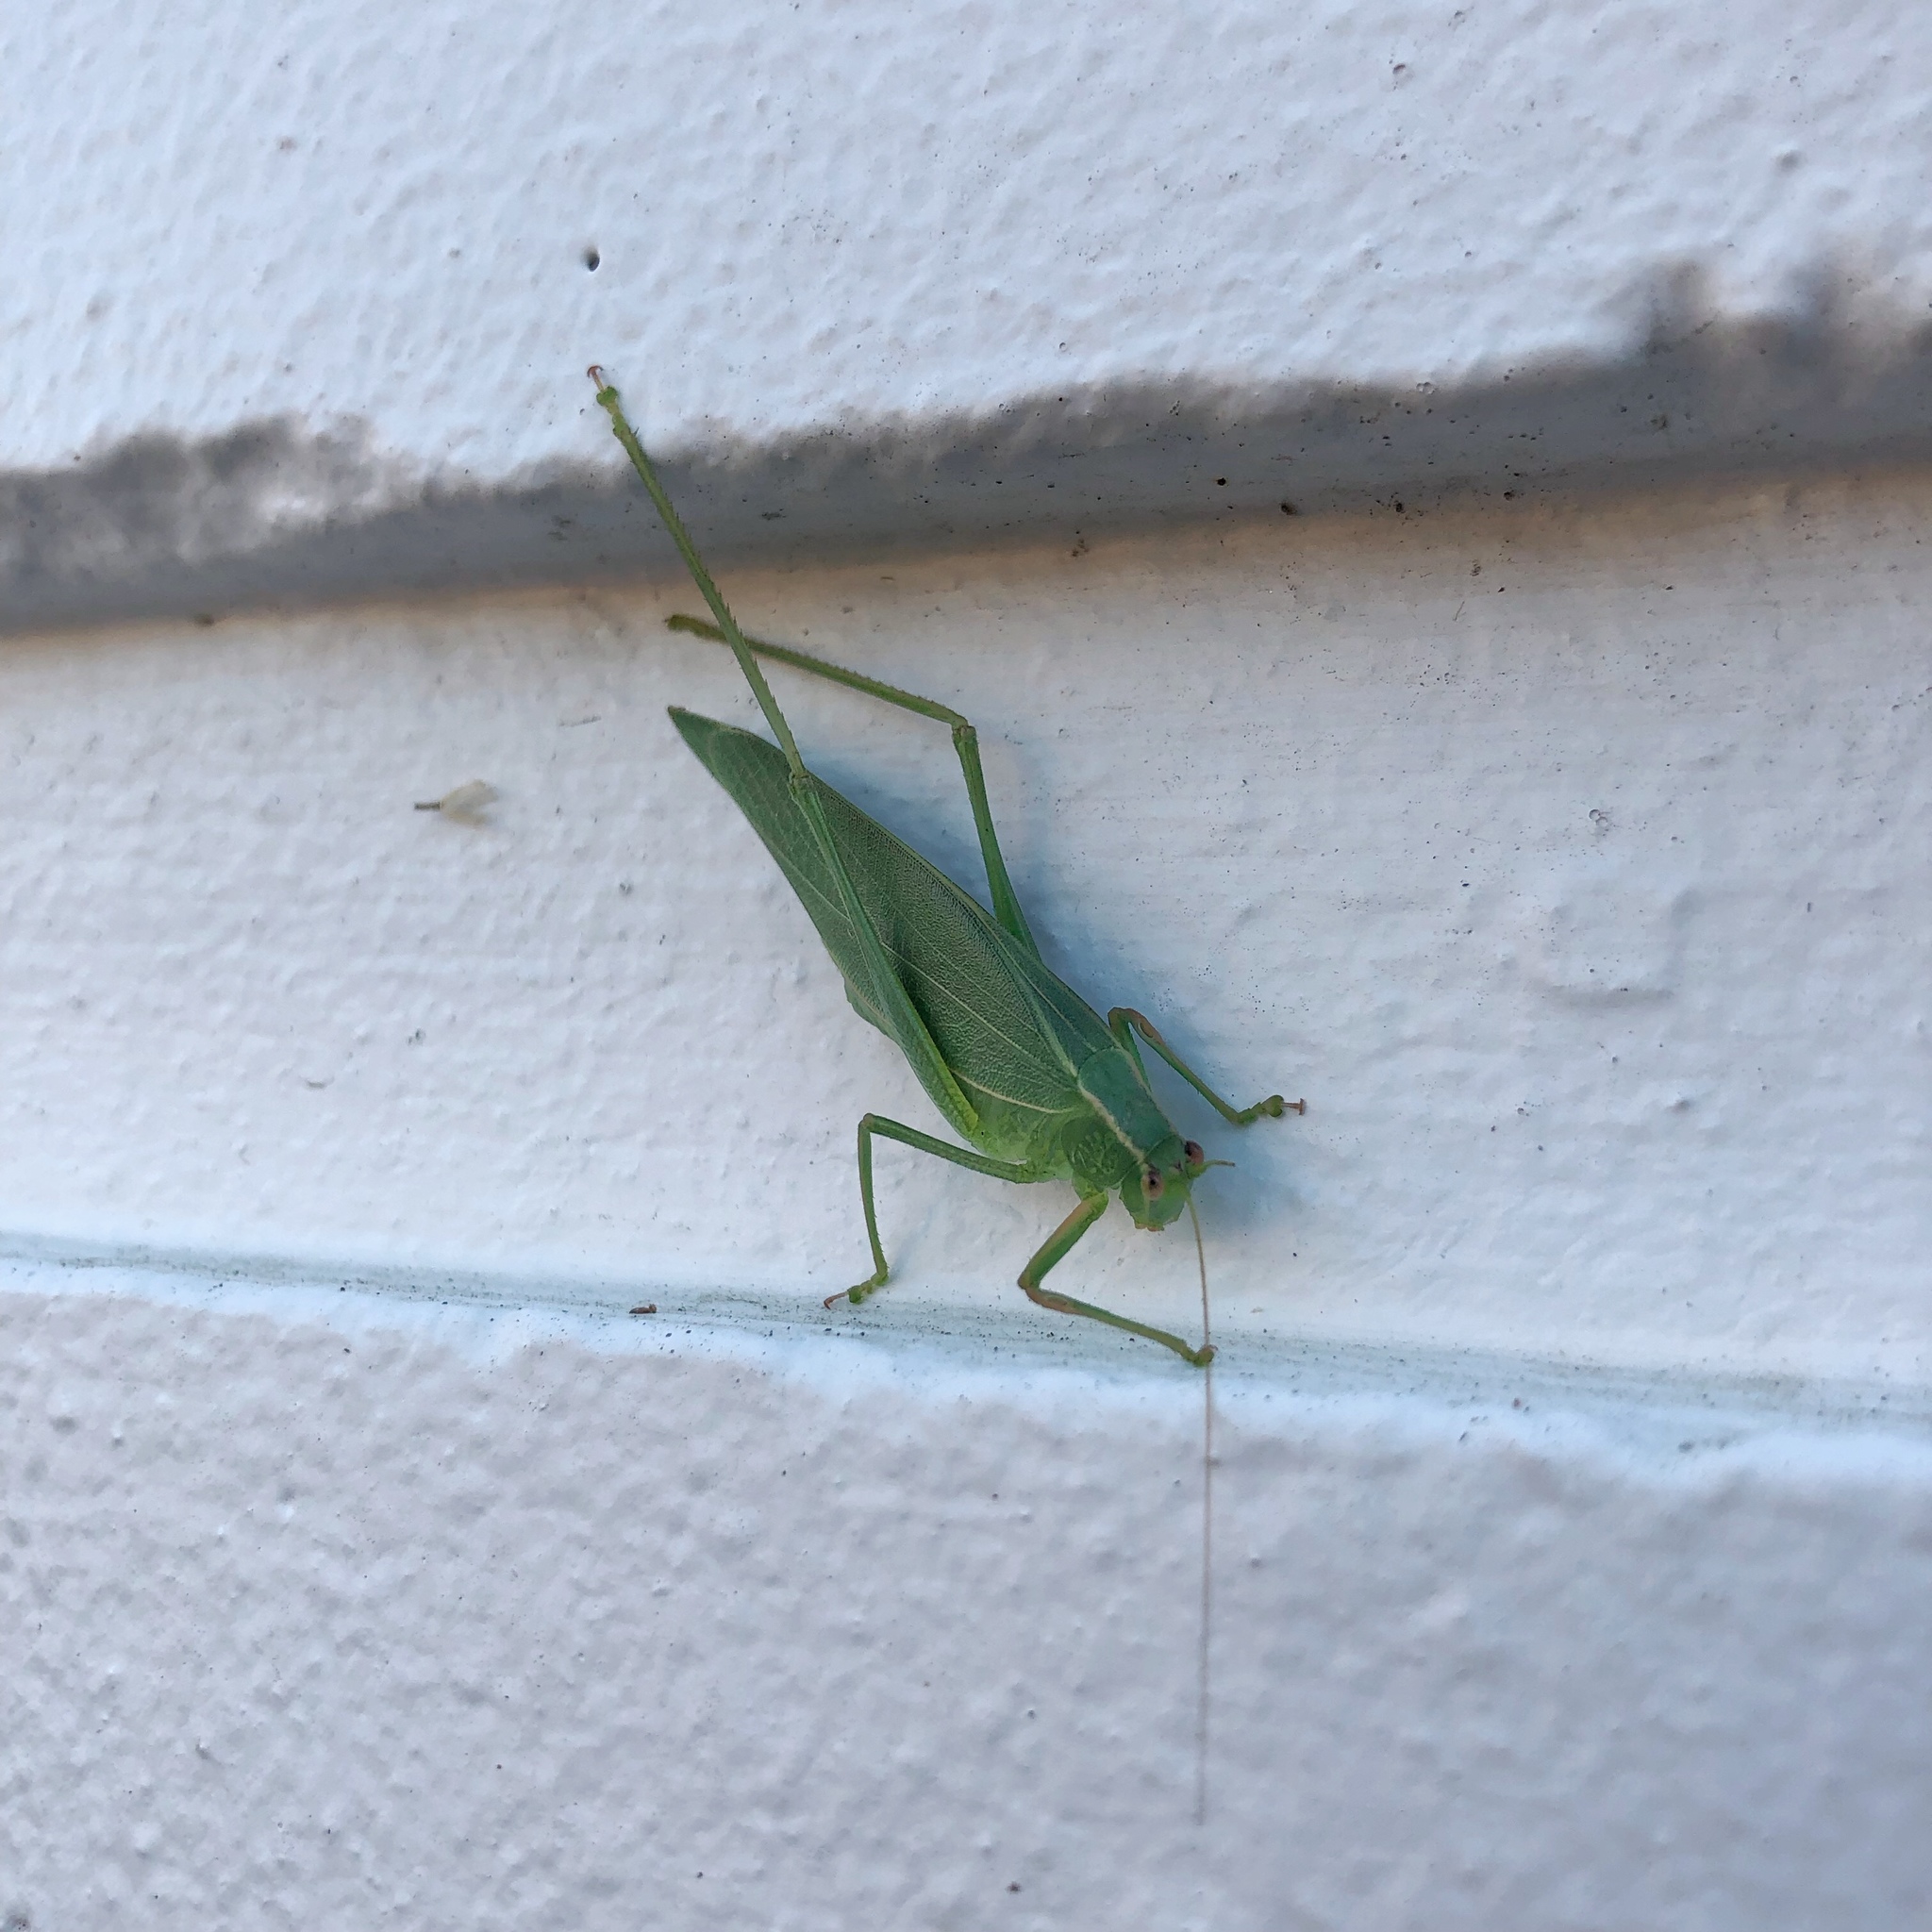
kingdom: Animalia
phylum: Arthropoda
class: Insecta
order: Orthoptera
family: Tettigoniidae
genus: Caedicia
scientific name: Caedicia simplex
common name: Common garden katydid
